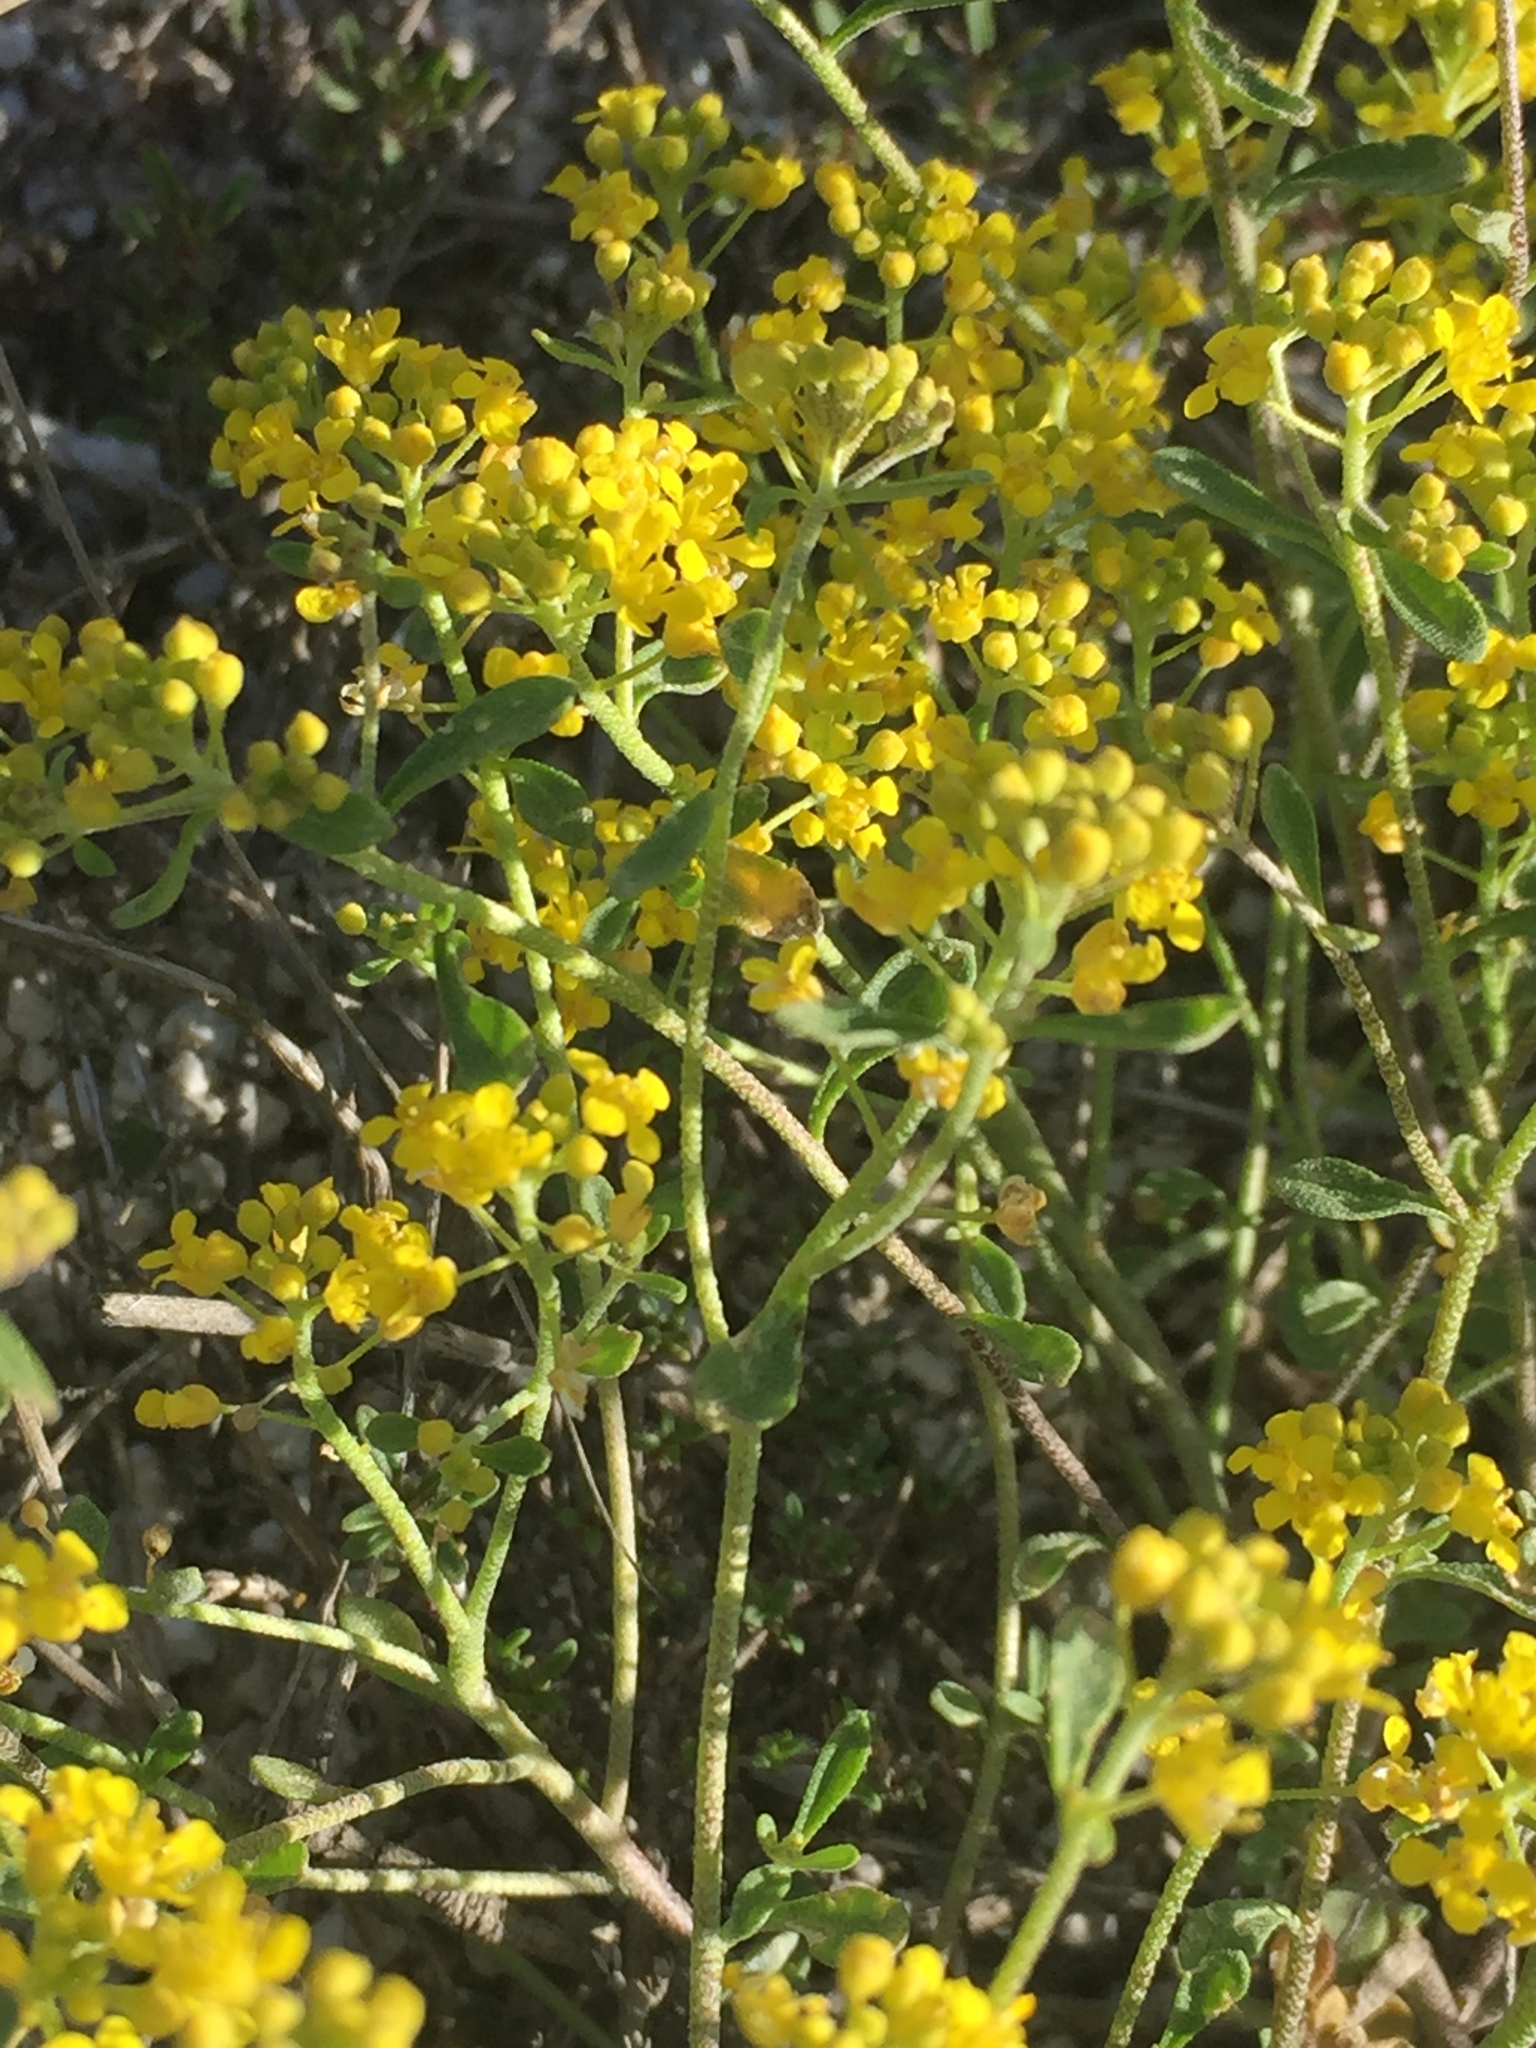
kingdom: Plantae
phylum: Tracheophyta
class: Magnoliopsida
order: Brassicales
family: Brassicaceae
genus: Odontarrhena
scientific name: Odontarrhena tortuosa
